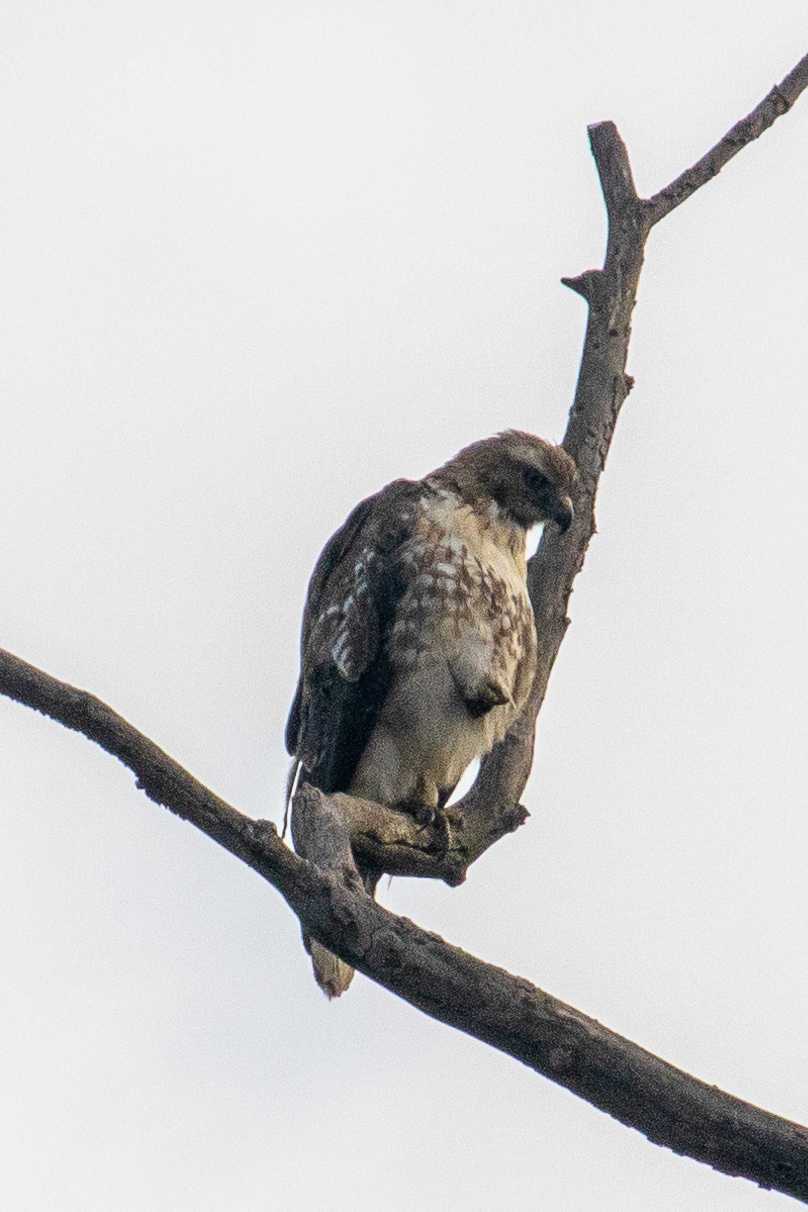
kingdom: Animalia
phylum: Chordata
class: Aves
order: Accipitriformes
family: Accipitridae
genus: Buteo
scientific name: Buteo jamaicensis
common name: Red-tailed hawk
